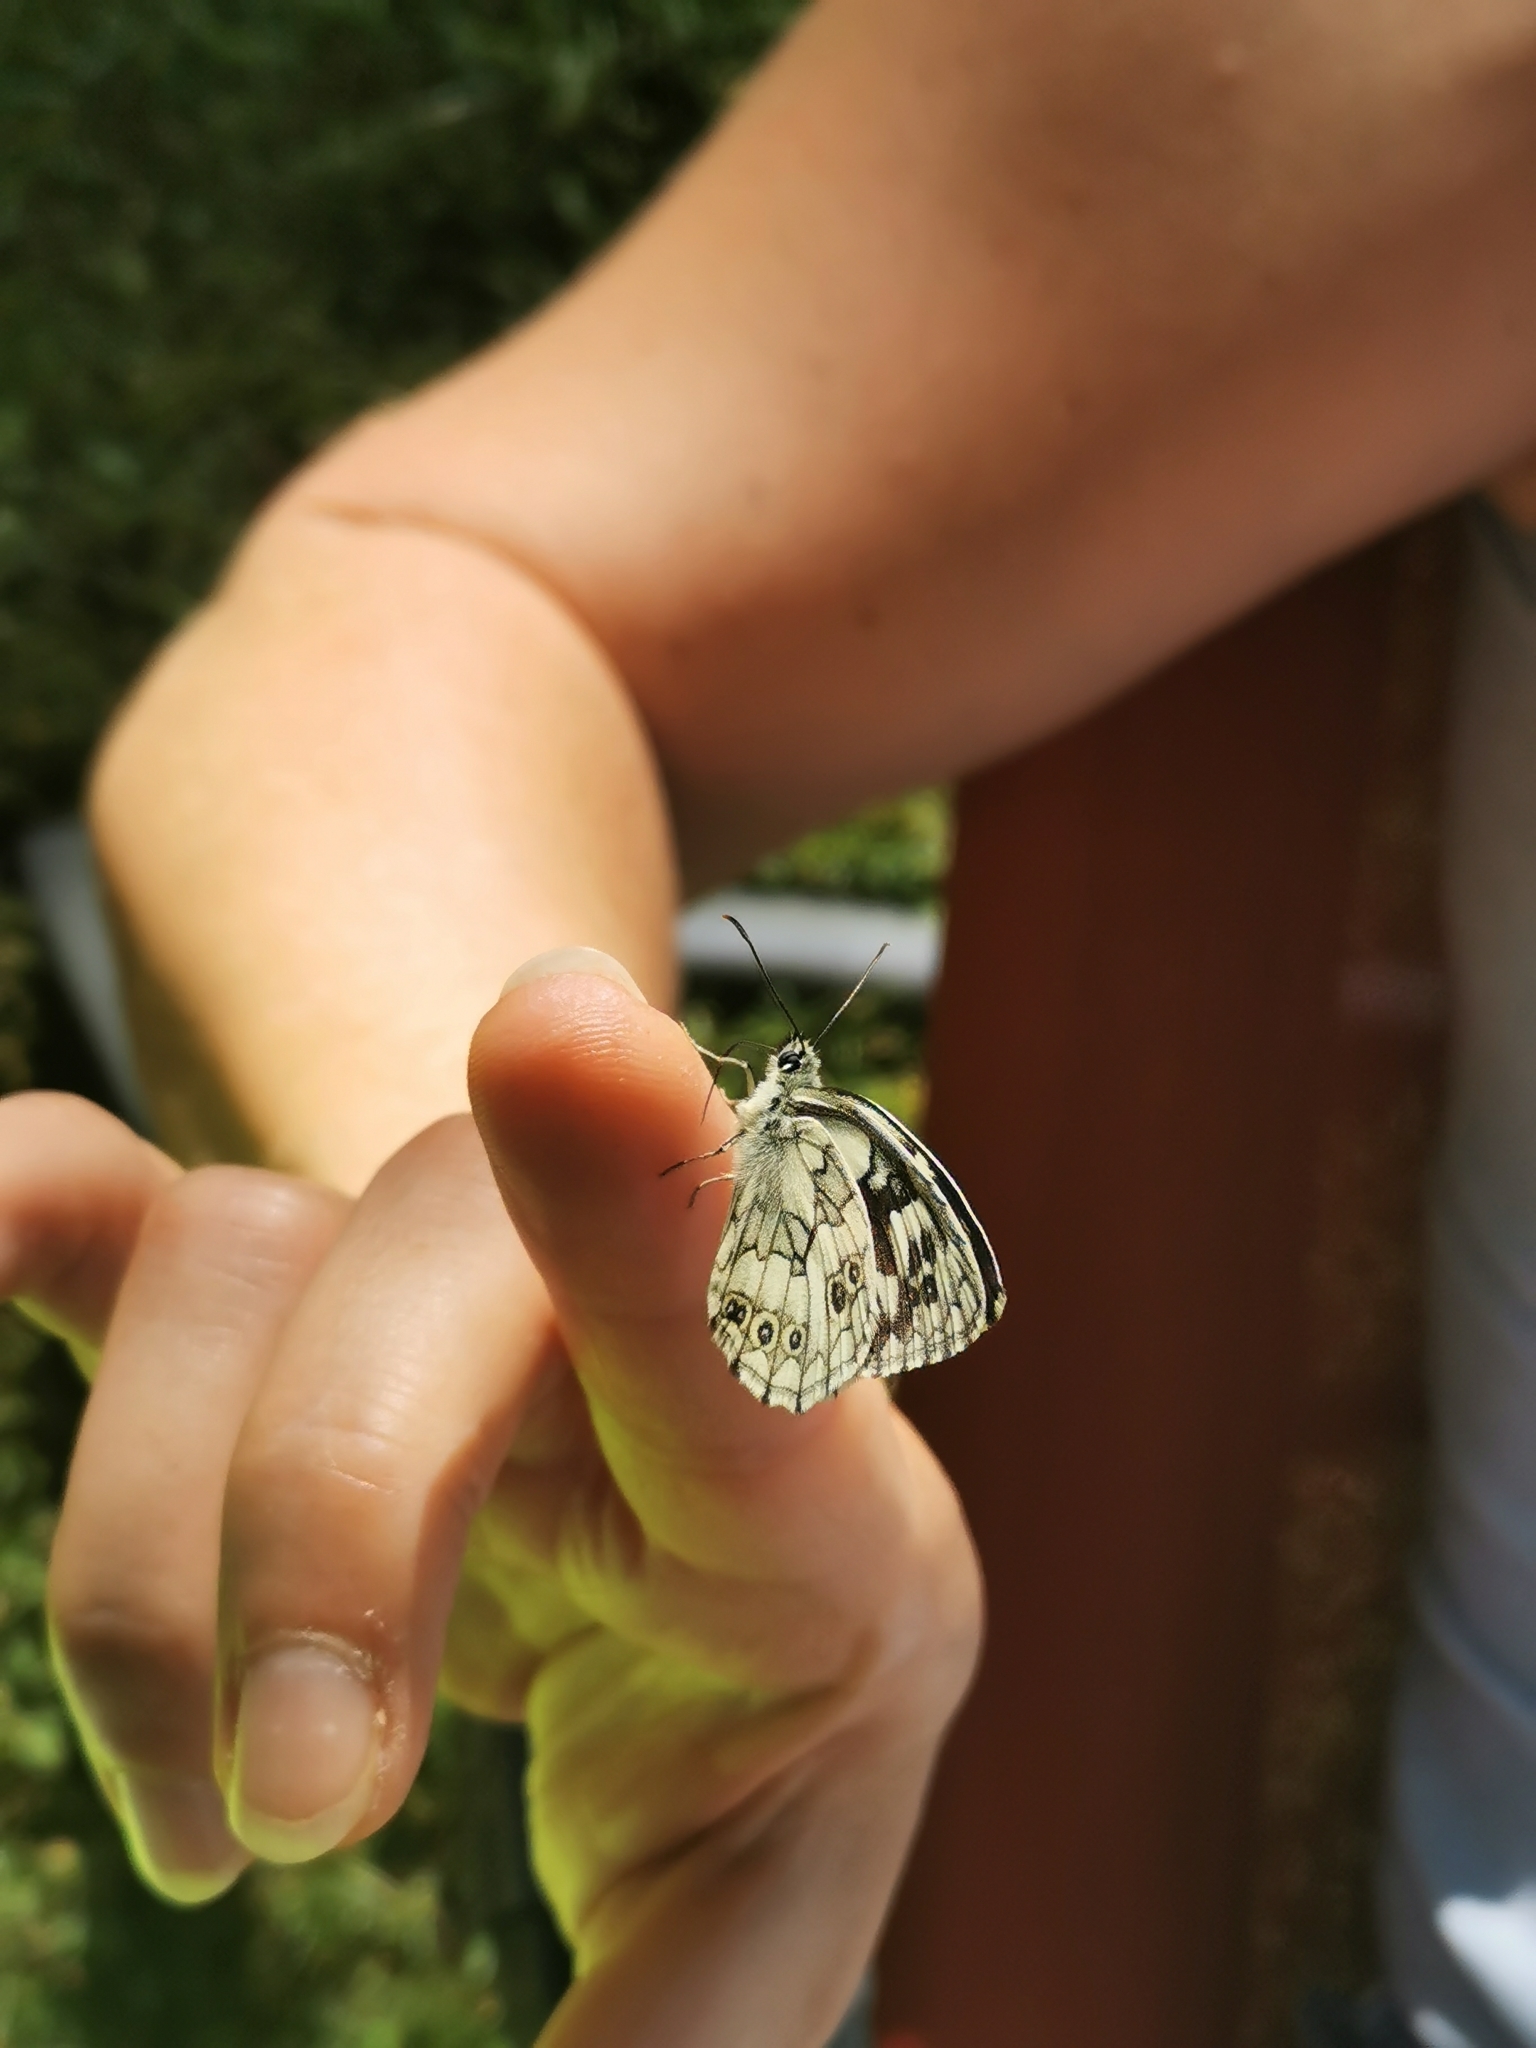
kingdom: Animalia
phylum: Arthropoda
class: Insecta
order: Lepidoptera
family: Nymphalidae
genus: Melanargia
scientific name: Melanargia galathea
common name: Marbled white
